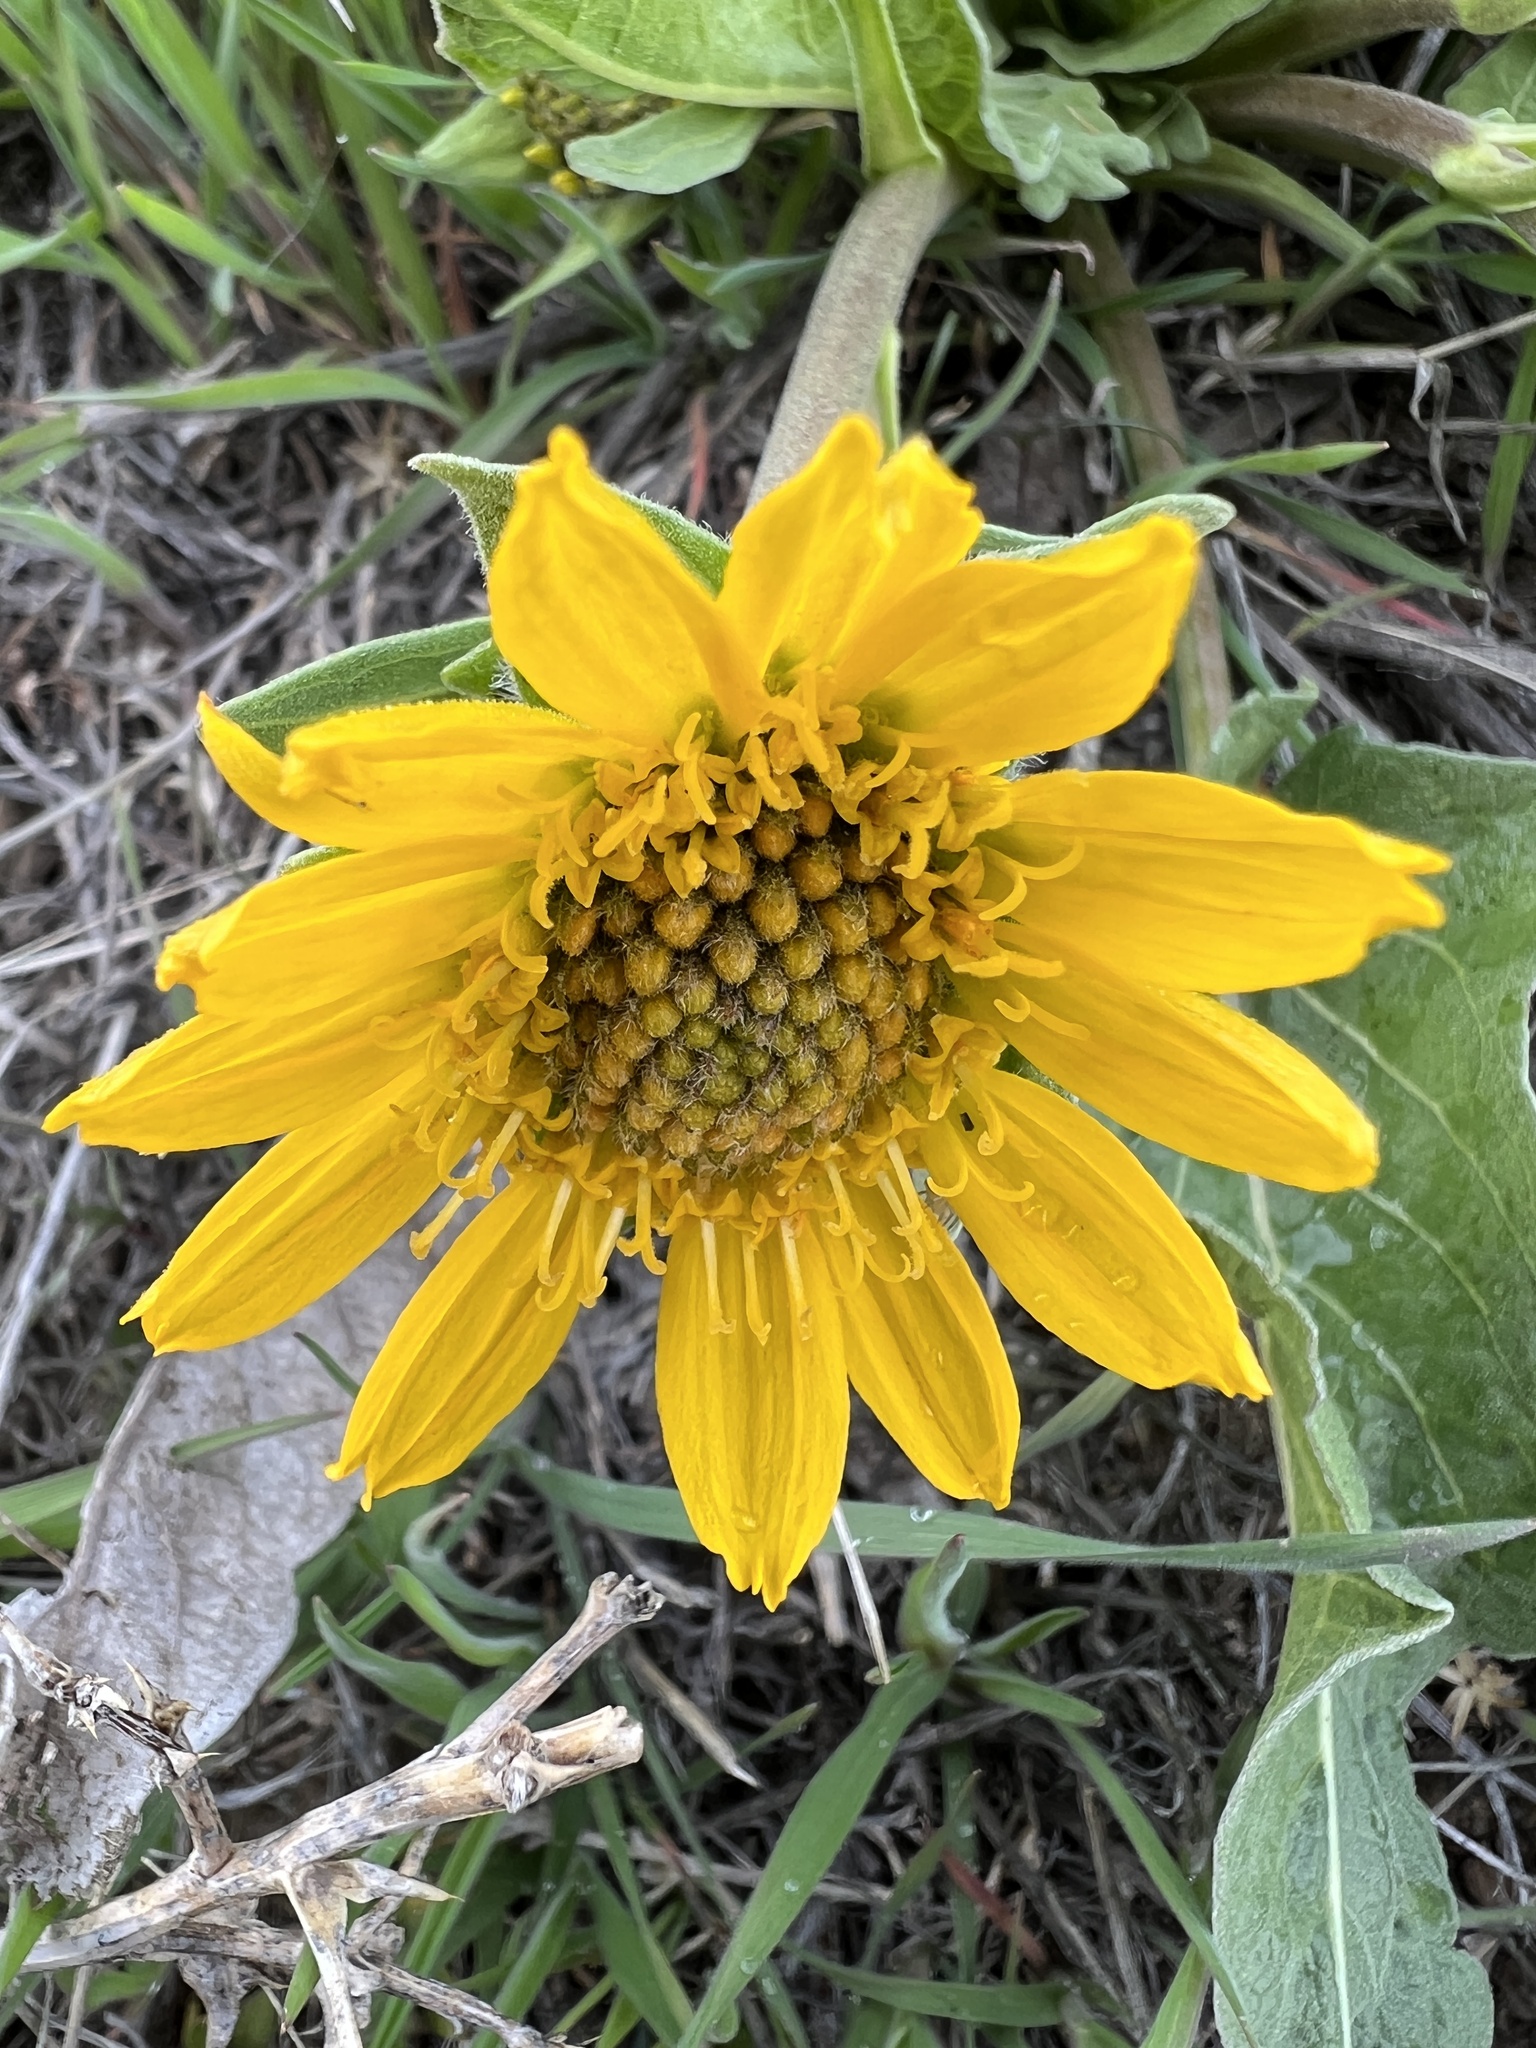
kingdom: Plantae
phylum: Tracheophyta
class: Magnoliopsida
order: Asterales
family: Asteraceae
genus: Balsamorhiza
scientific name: Balsamorhiza careyana
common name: Carey's balsamroot
